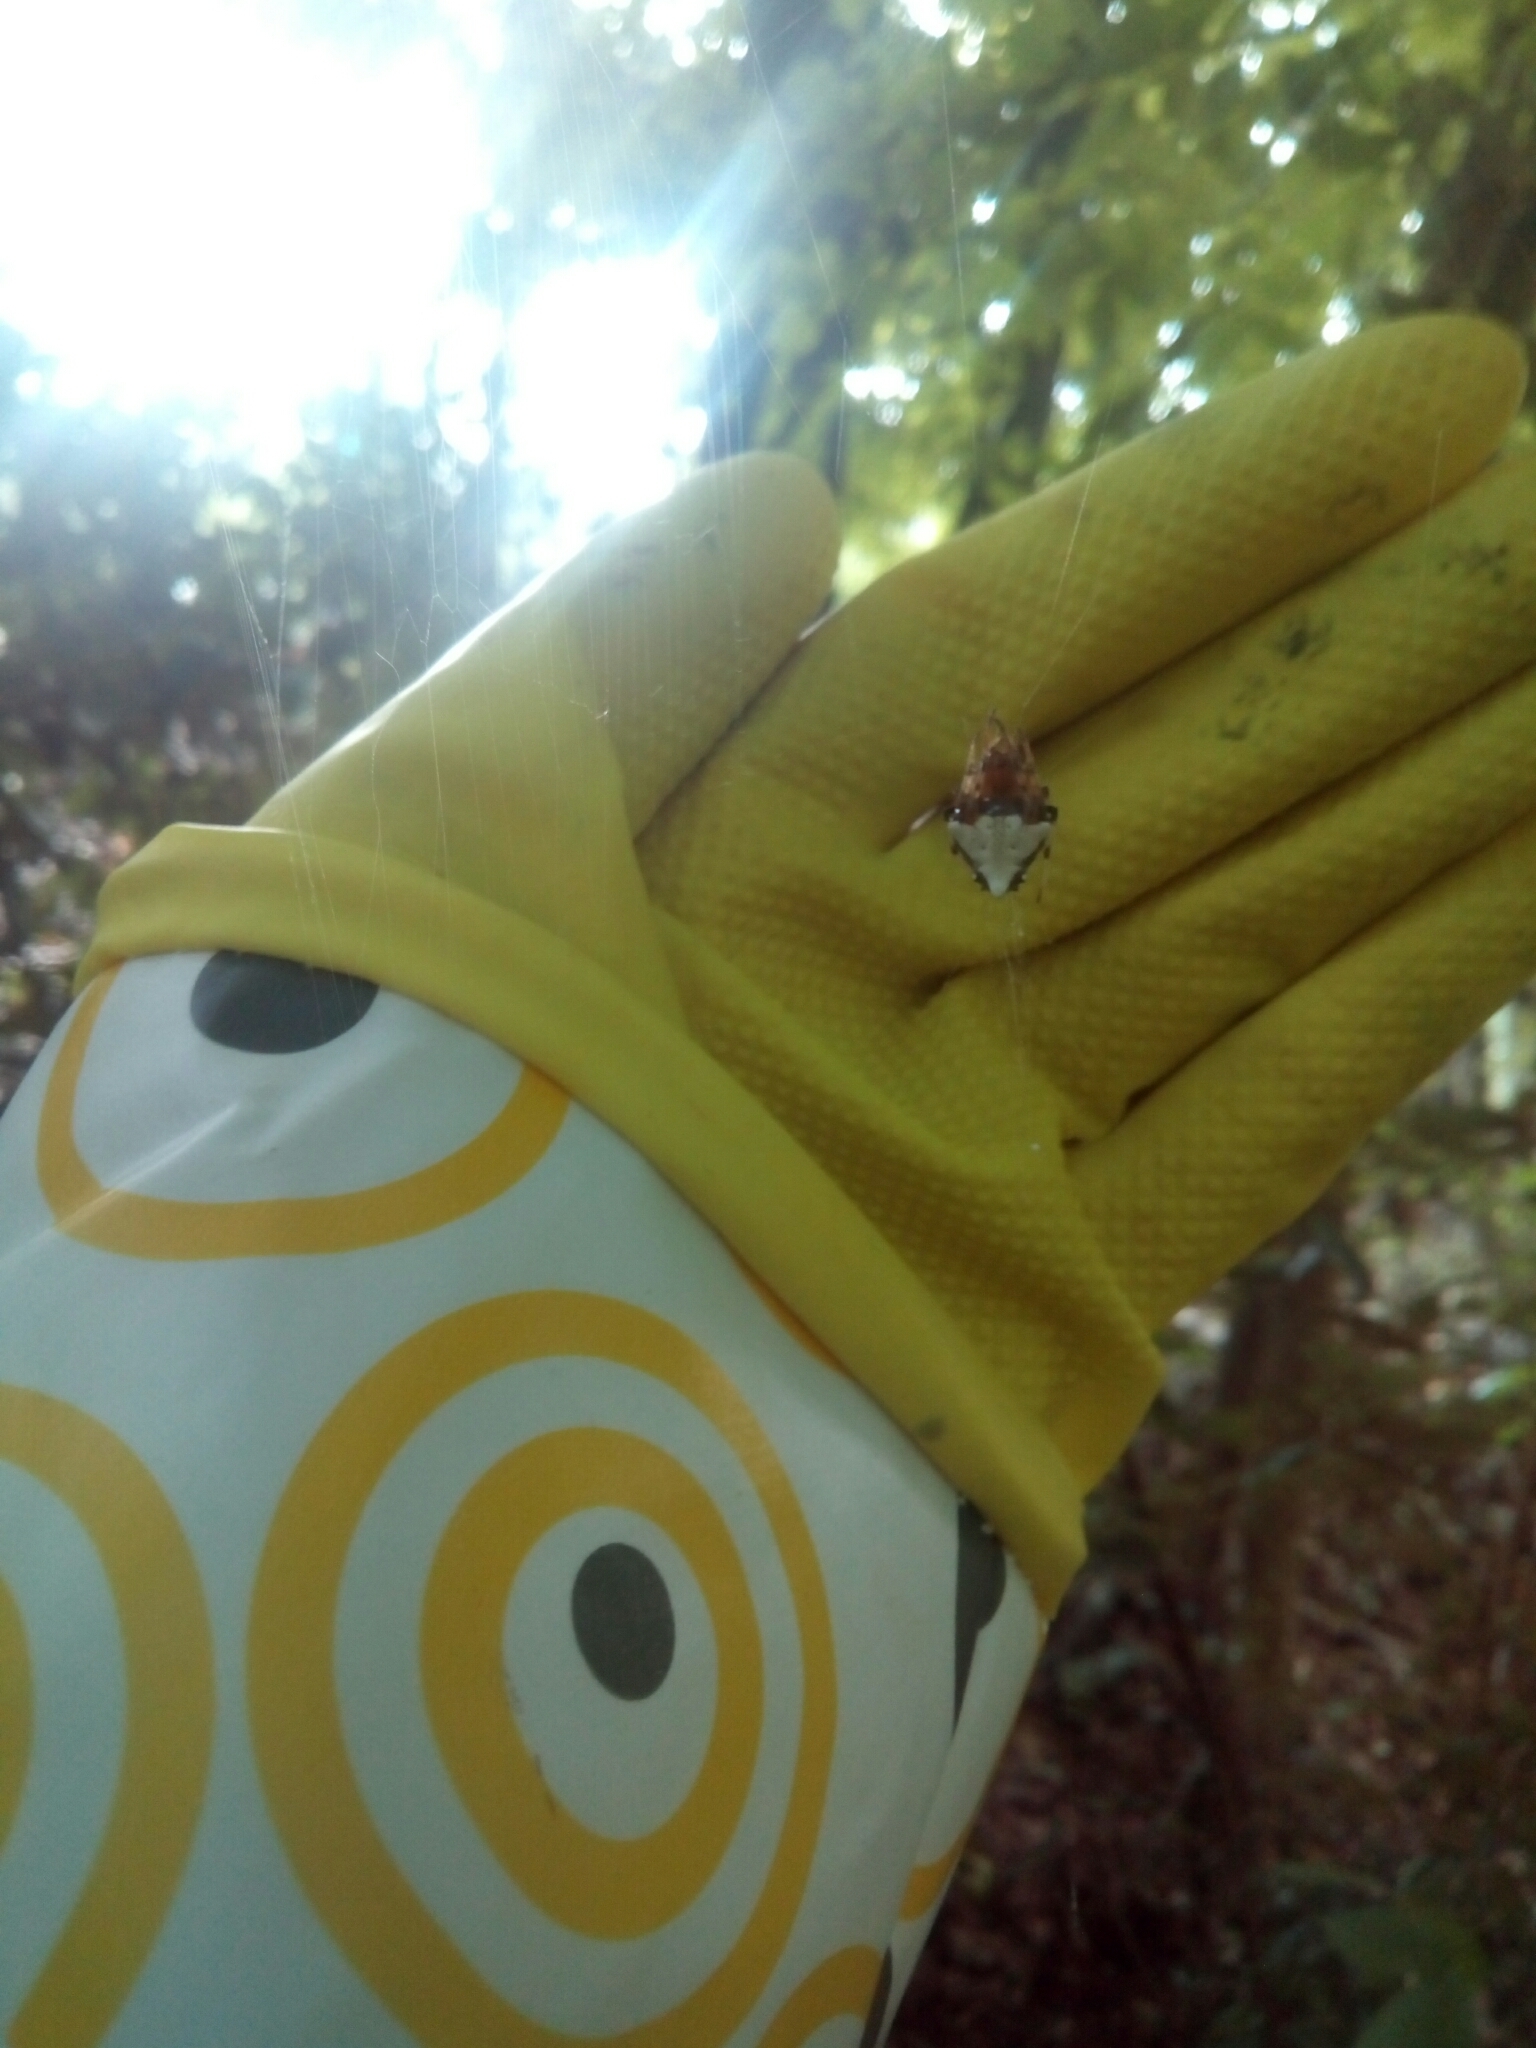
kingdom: Animalia
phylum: Arthropoda
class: Arachnida
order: Araneae
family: Araneidae
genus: Verrucosa
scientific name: Verrucosa arenata
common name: Orb weavers
